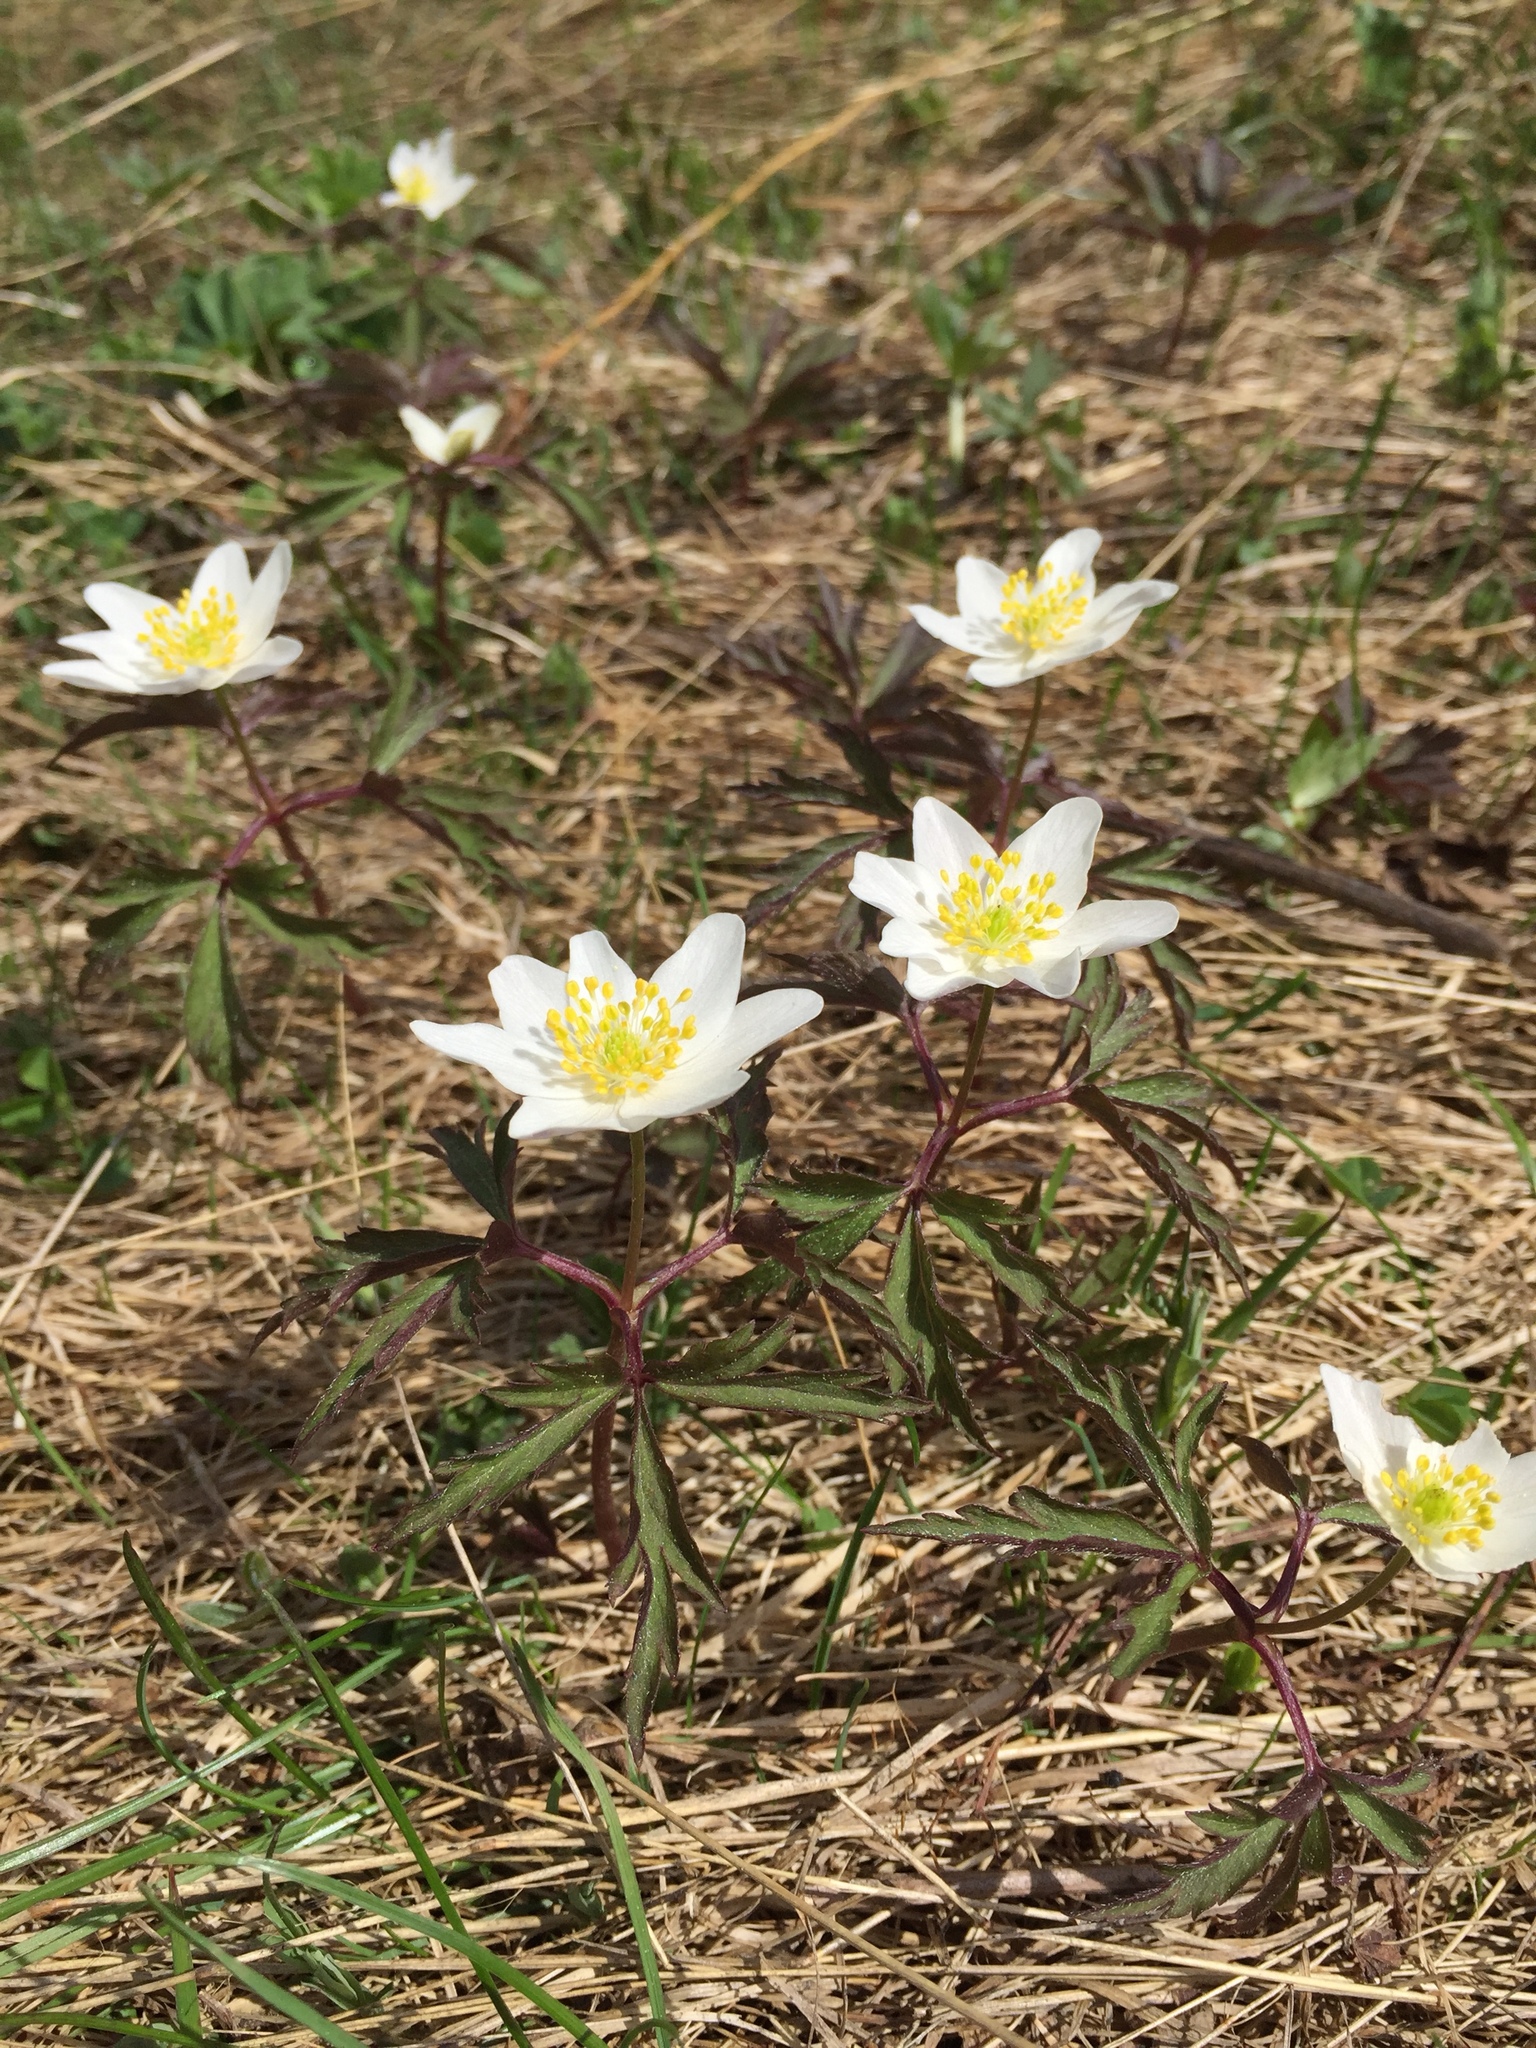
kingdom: Plantae
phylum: Tracheophyta
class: Magnoliopsida
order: Ranunculales
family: Ranunculaceae
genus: Anemone
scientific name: Anemone nemorosa
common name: Wood anemone
